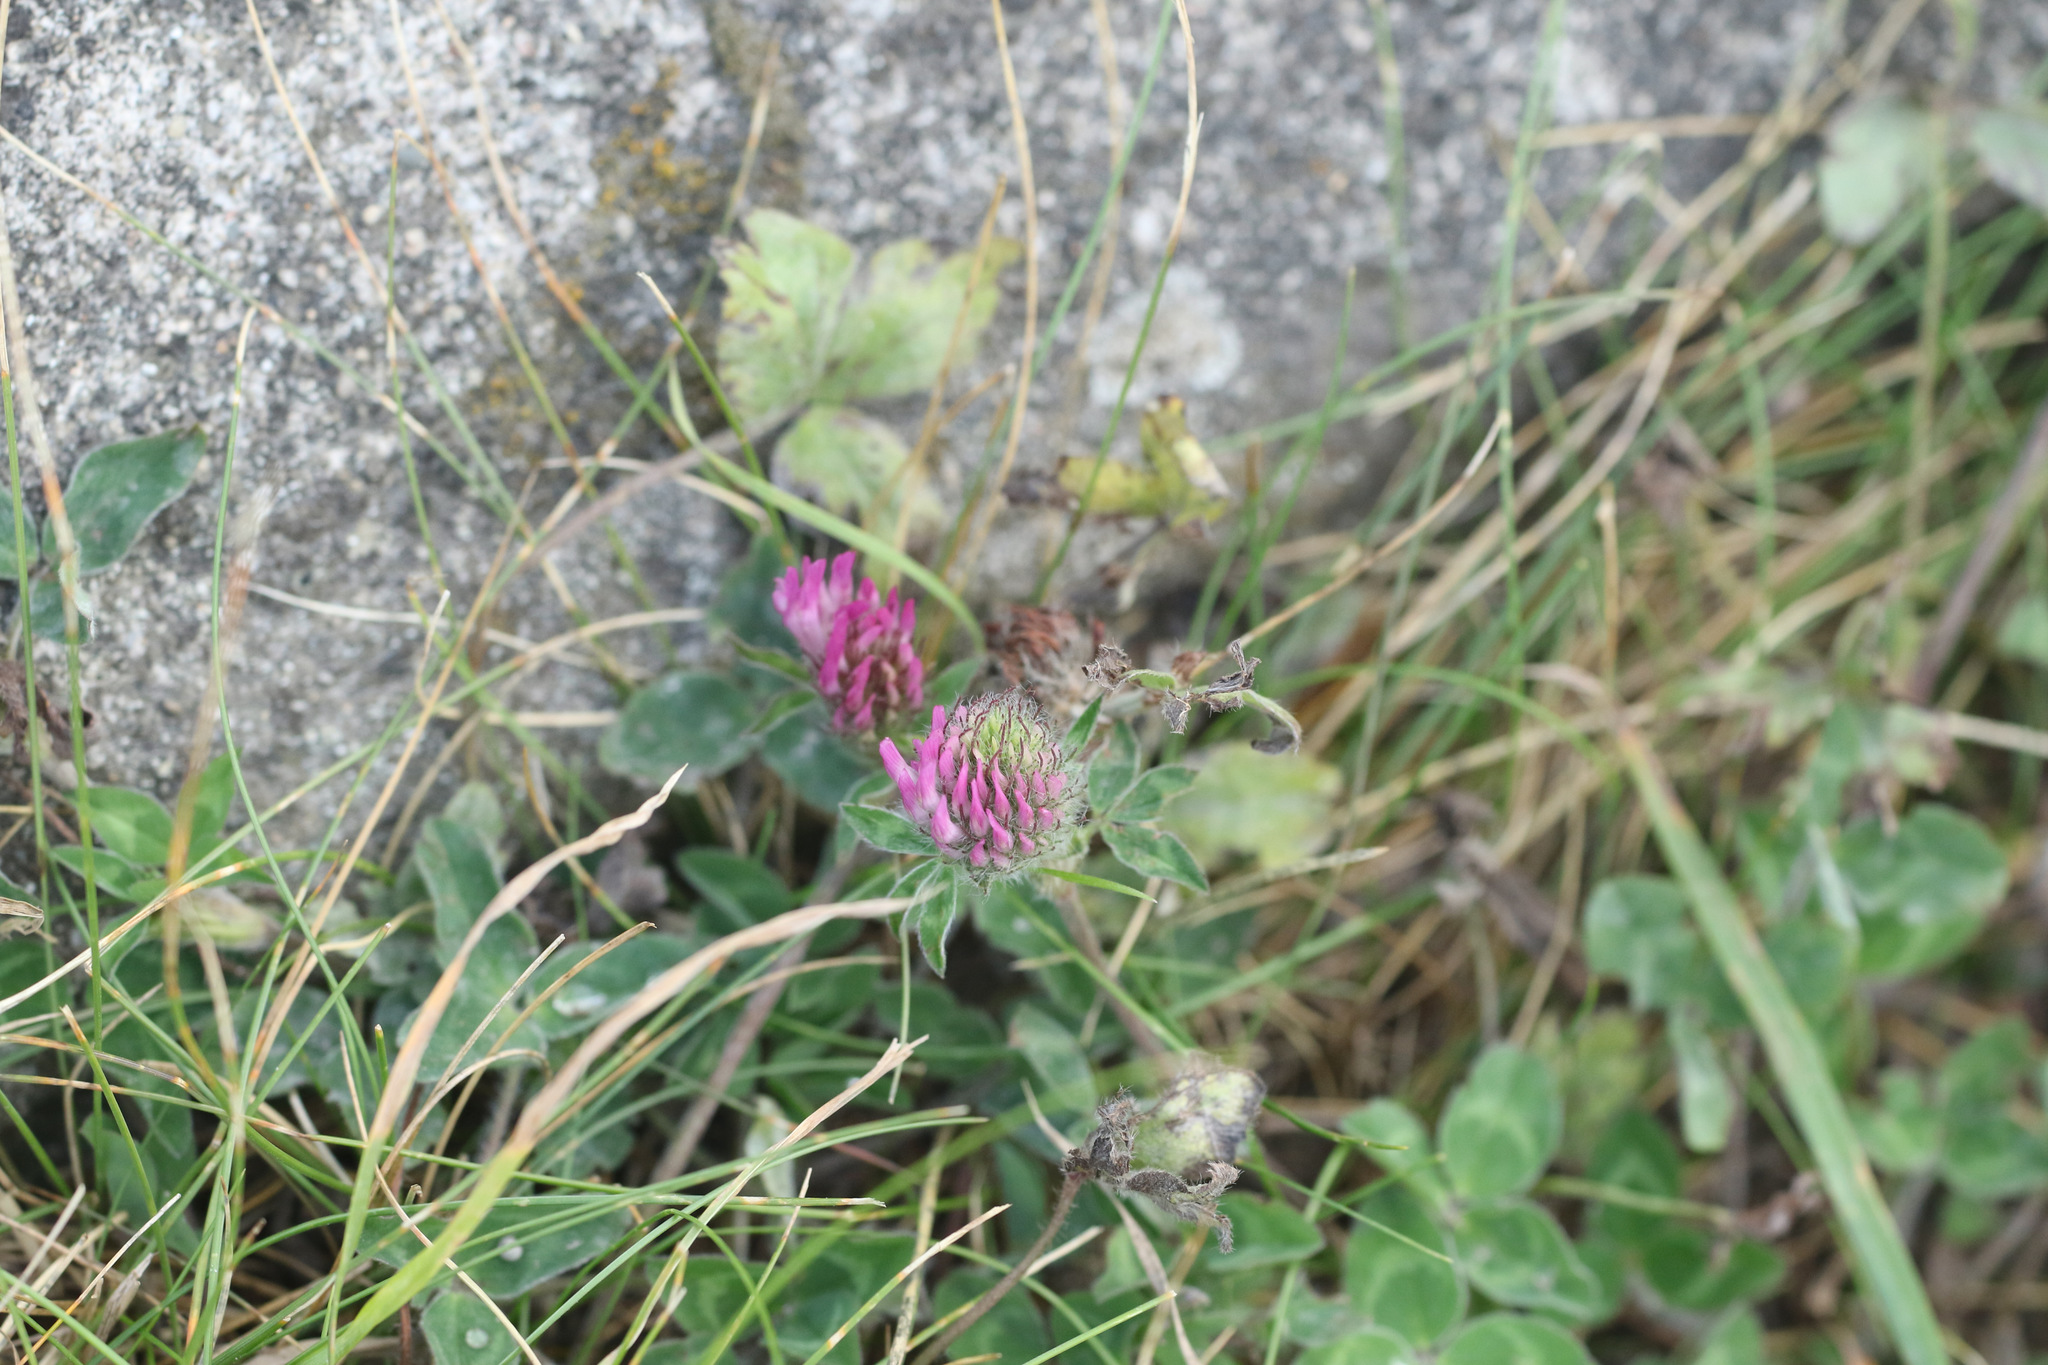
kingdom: Plantae
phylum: Tracheophyta
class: Magnoliopsida
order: Fabales
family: Fabaceae
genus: Trifolium
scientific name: Trifolium pratense
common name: Red clover
